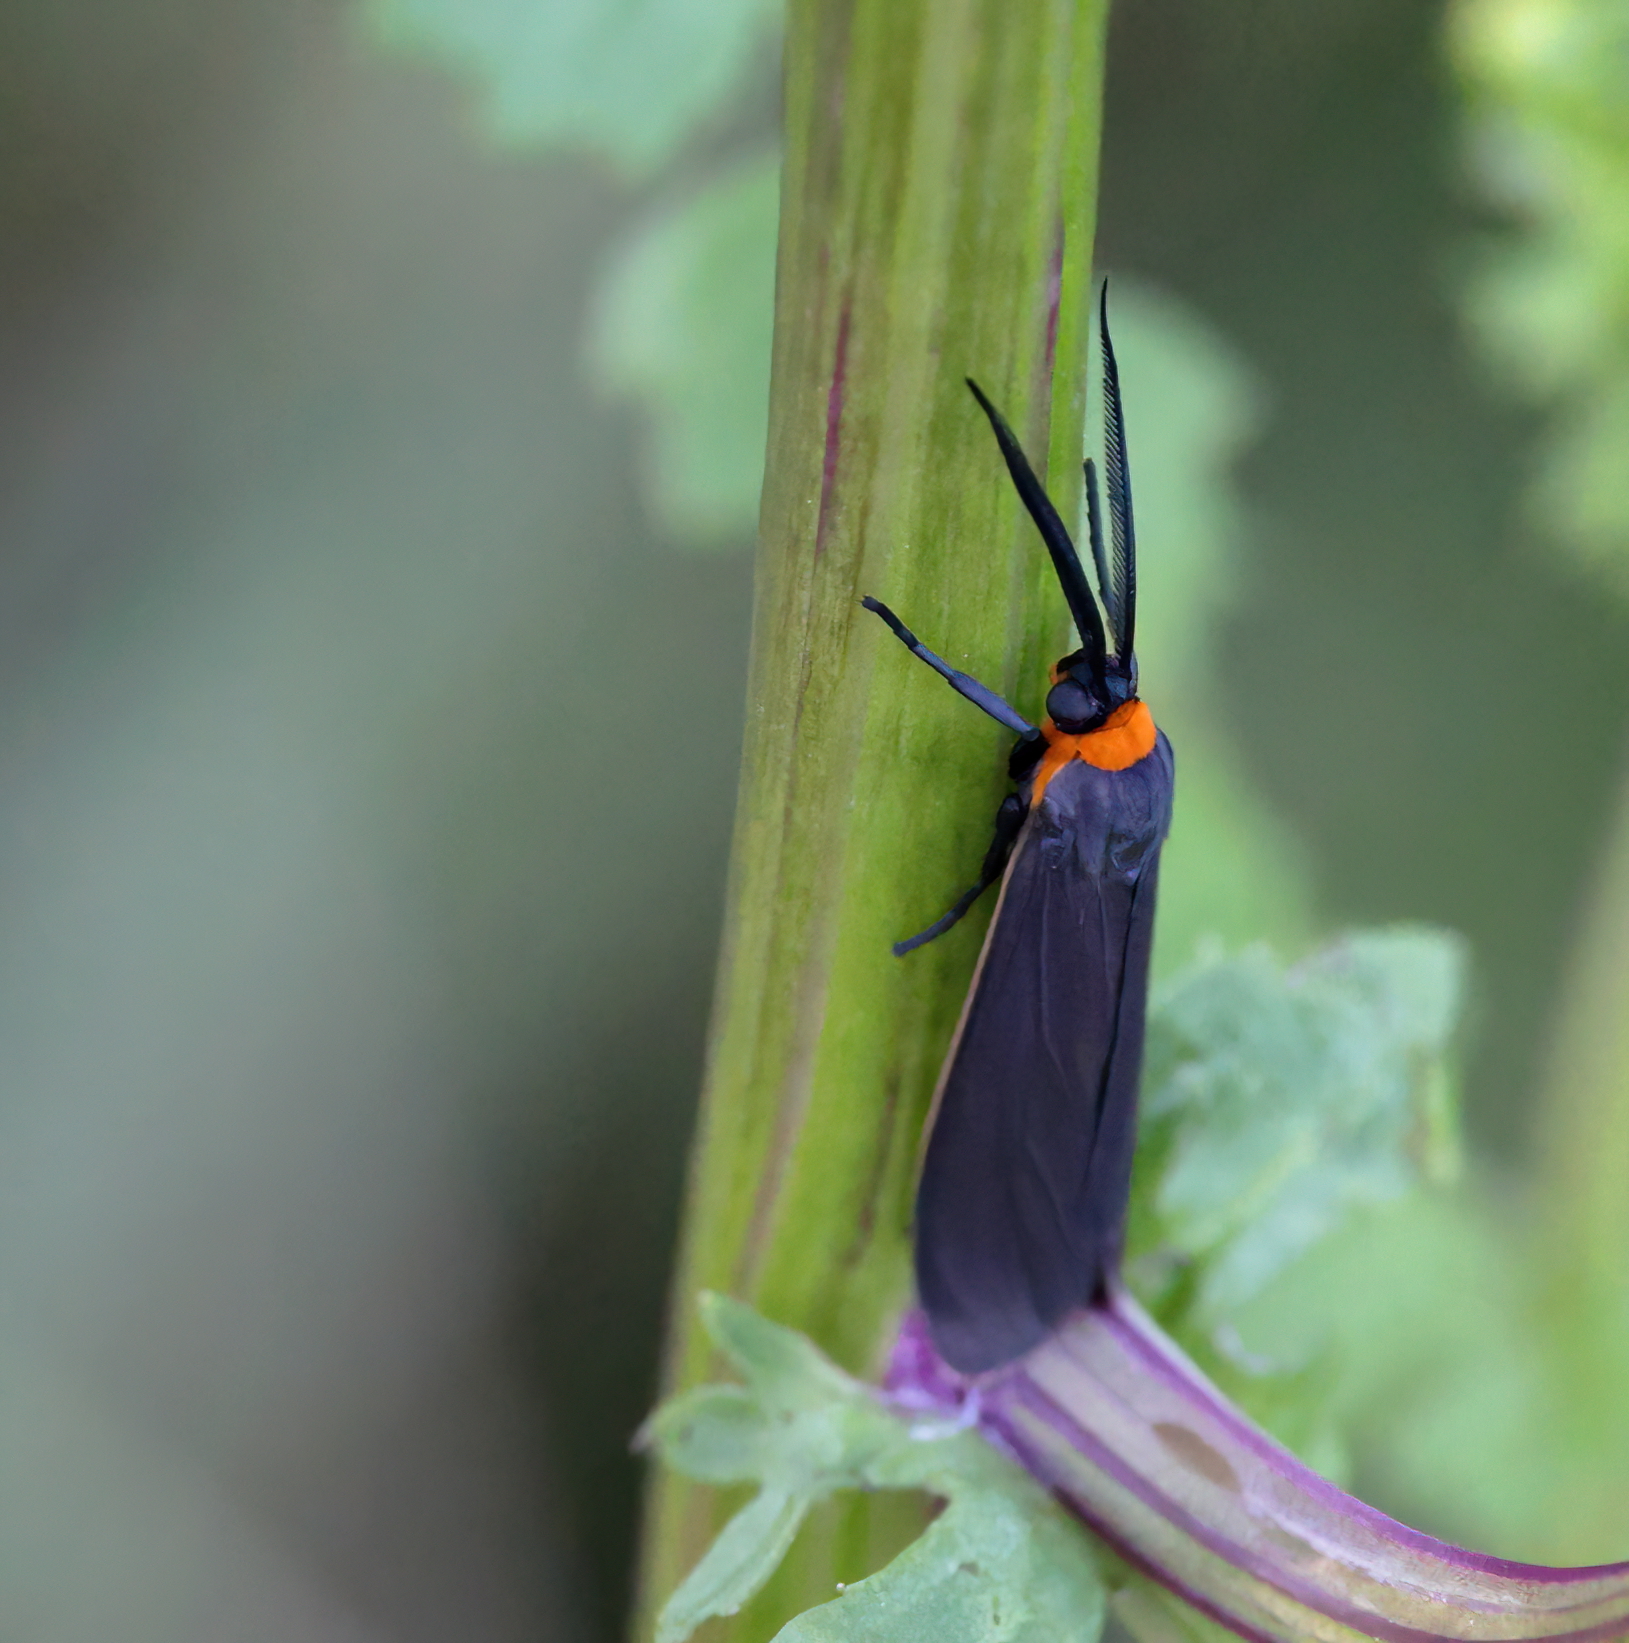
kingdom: Animalia
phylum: Arthropoda
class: Insecta
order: Lepidoptera
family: Erebidae
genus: Cisseps
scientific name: Cisseps fulvicollis
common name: Yellow-collared scape moth
